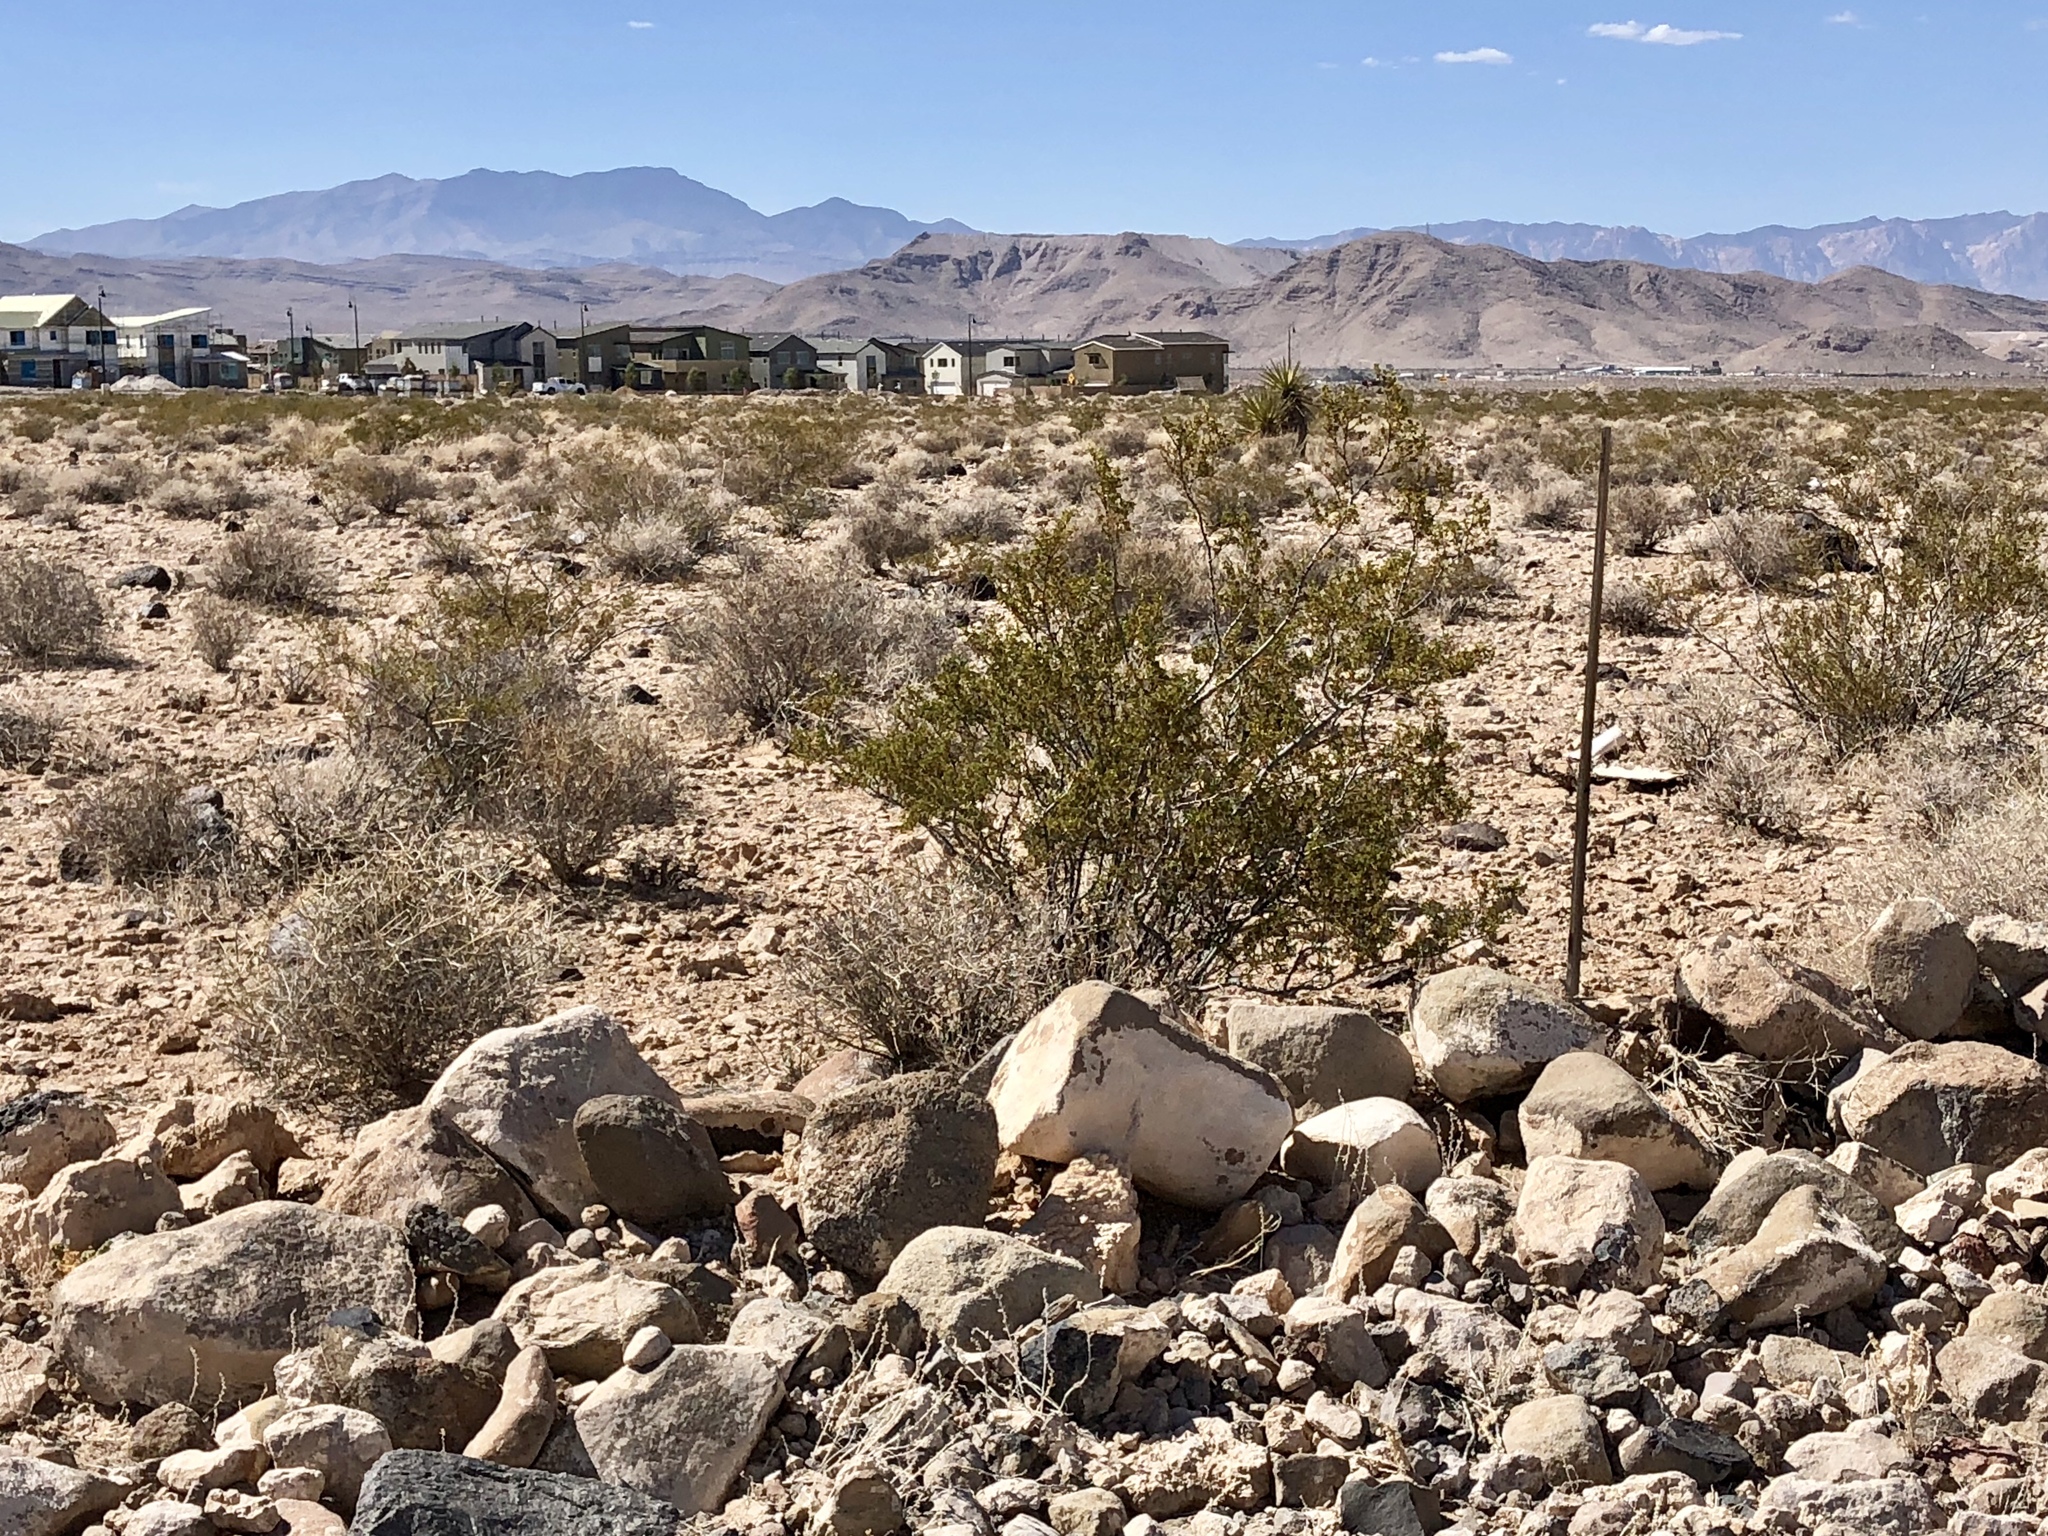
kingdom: Plantae
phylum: Tracheophyta
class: Magnoliopsida
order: Zygophyllales
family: Zygophyllaceae
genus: Larrea
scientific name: Larrea tridentata
